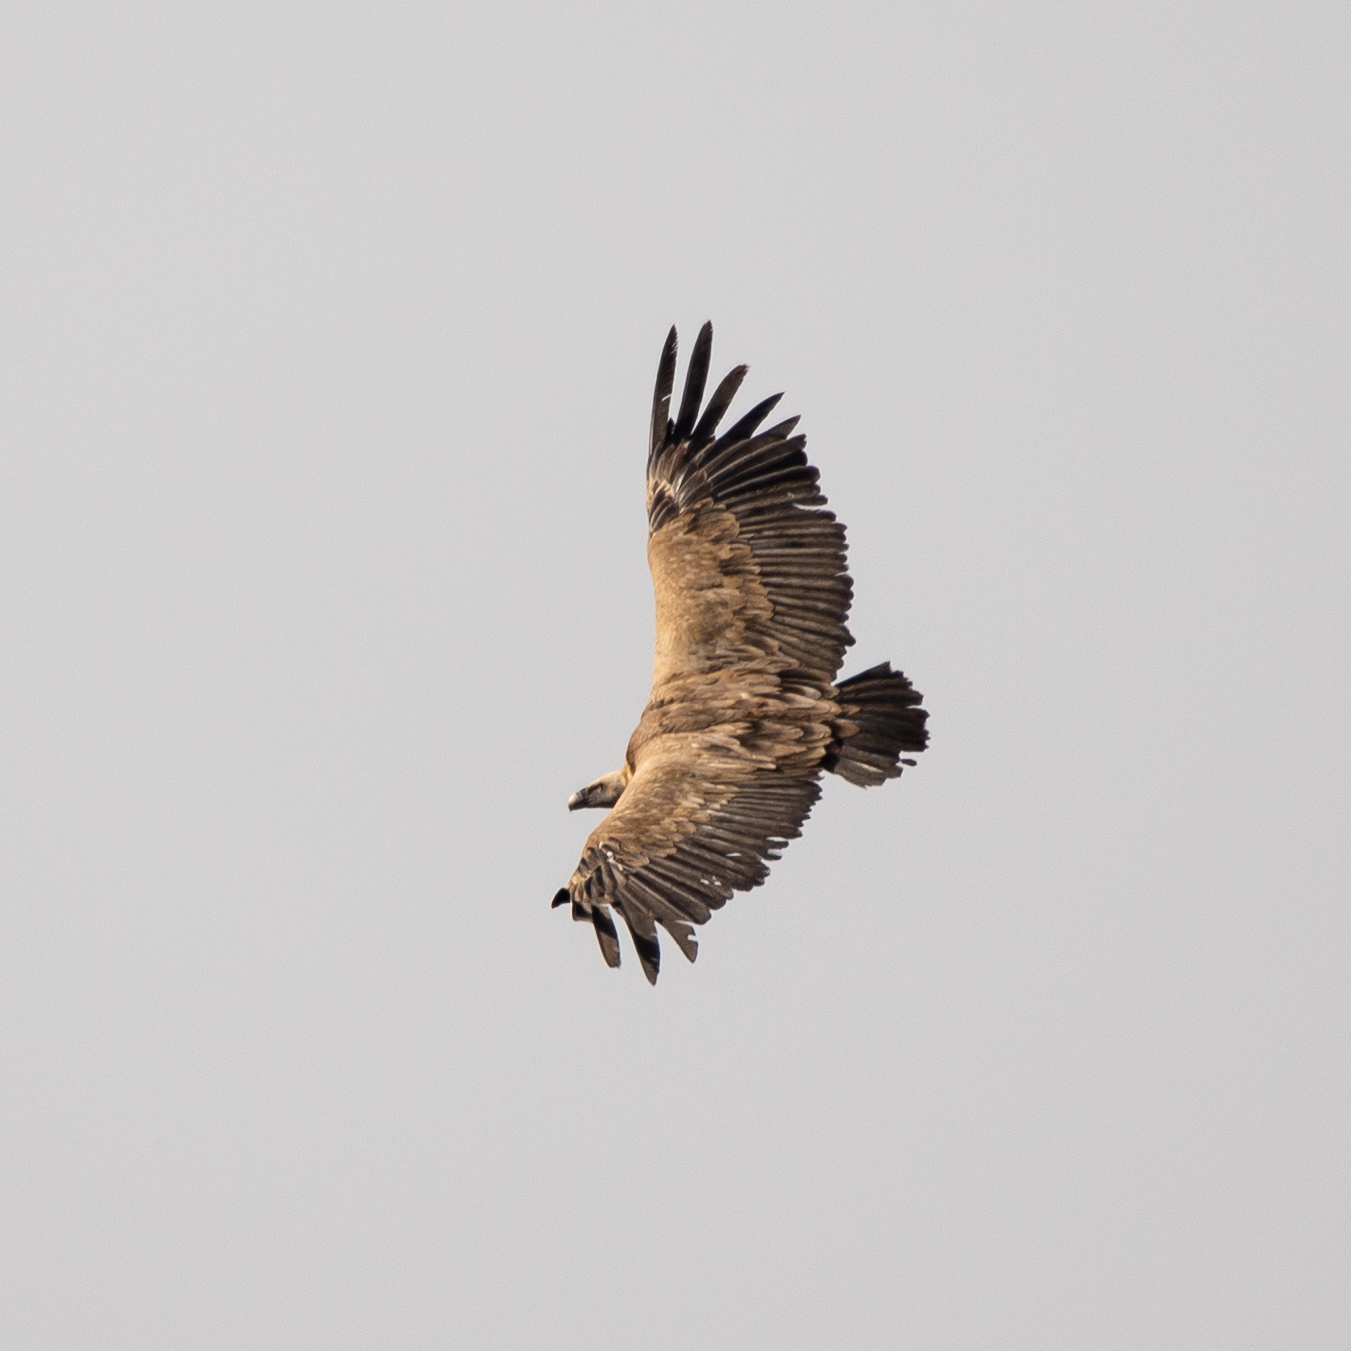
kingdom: Animalia
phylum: Chordata
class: Aves
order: Accipitriformes
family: Accipitridae
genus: Gyps
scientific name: Gyps fulvus
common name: Griffon vulture
